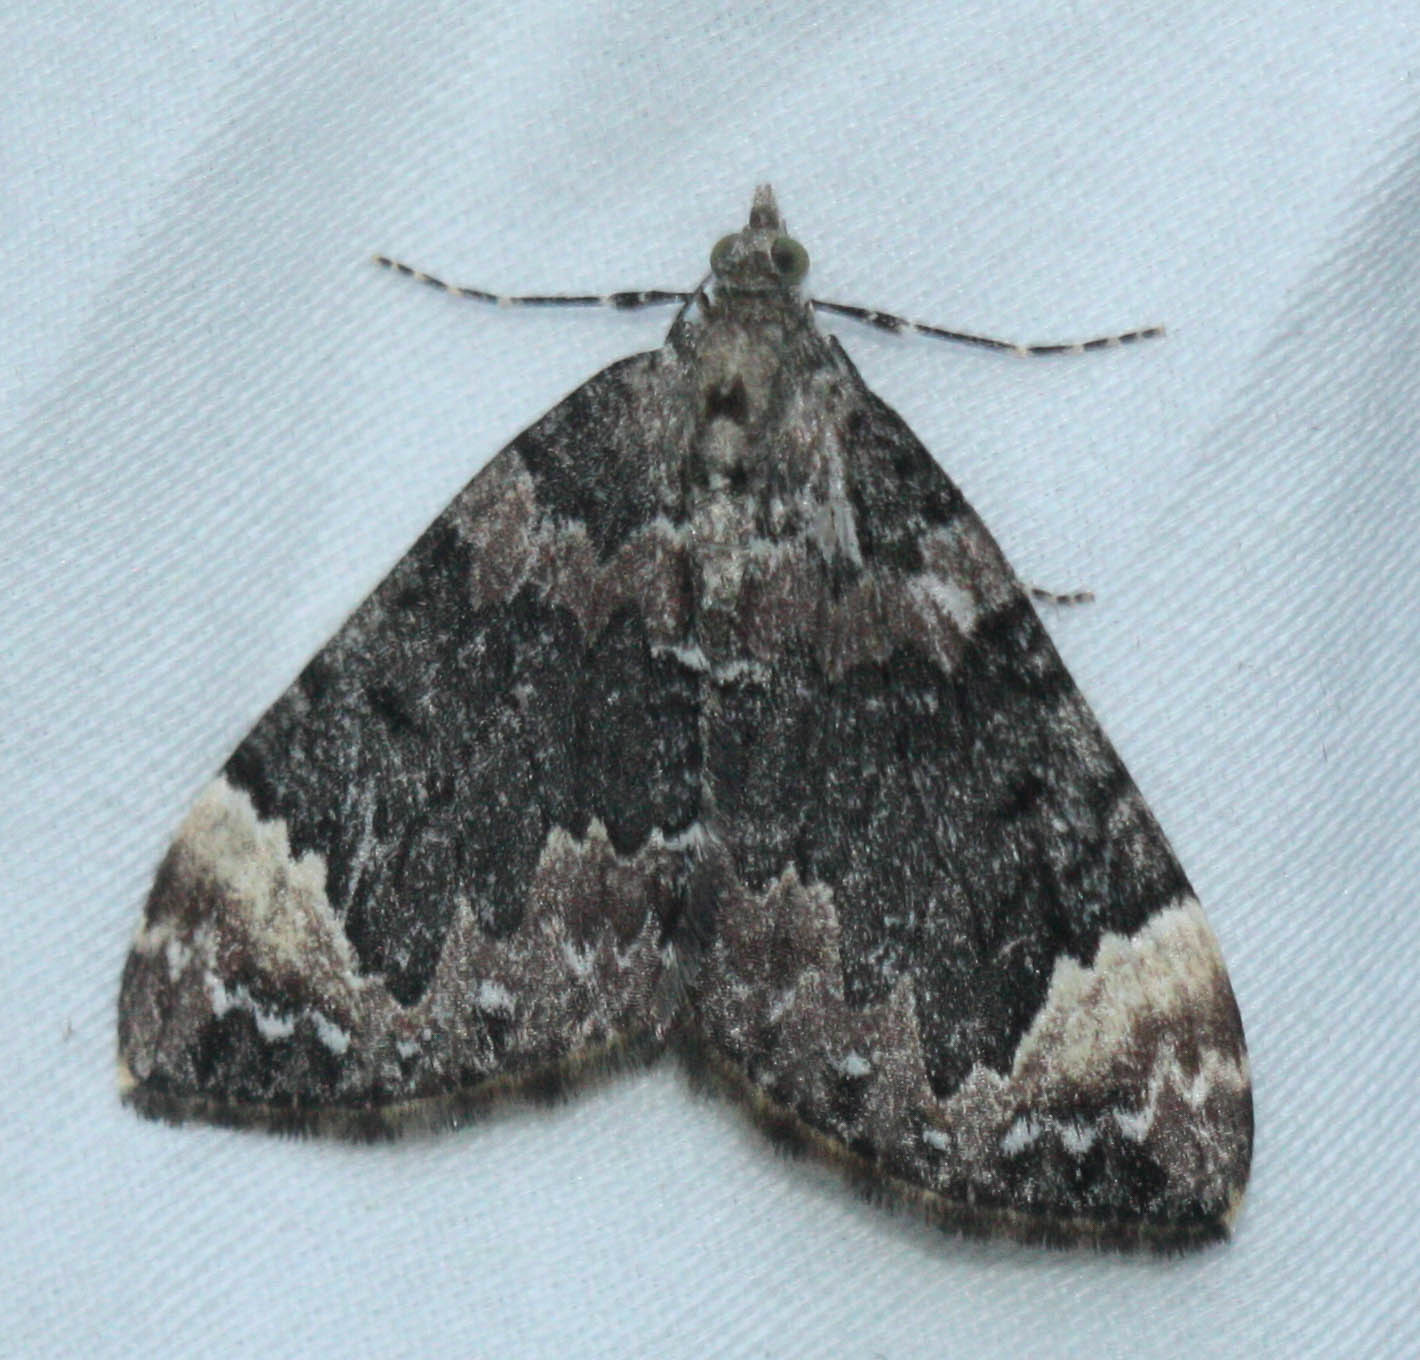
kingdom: Animalia
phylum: Arthropoda
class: Insecta
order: Lepidoptera
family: Geometridae
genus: Dysstroma
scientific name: Dysstroma citrata
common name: Dark marbled carpet
